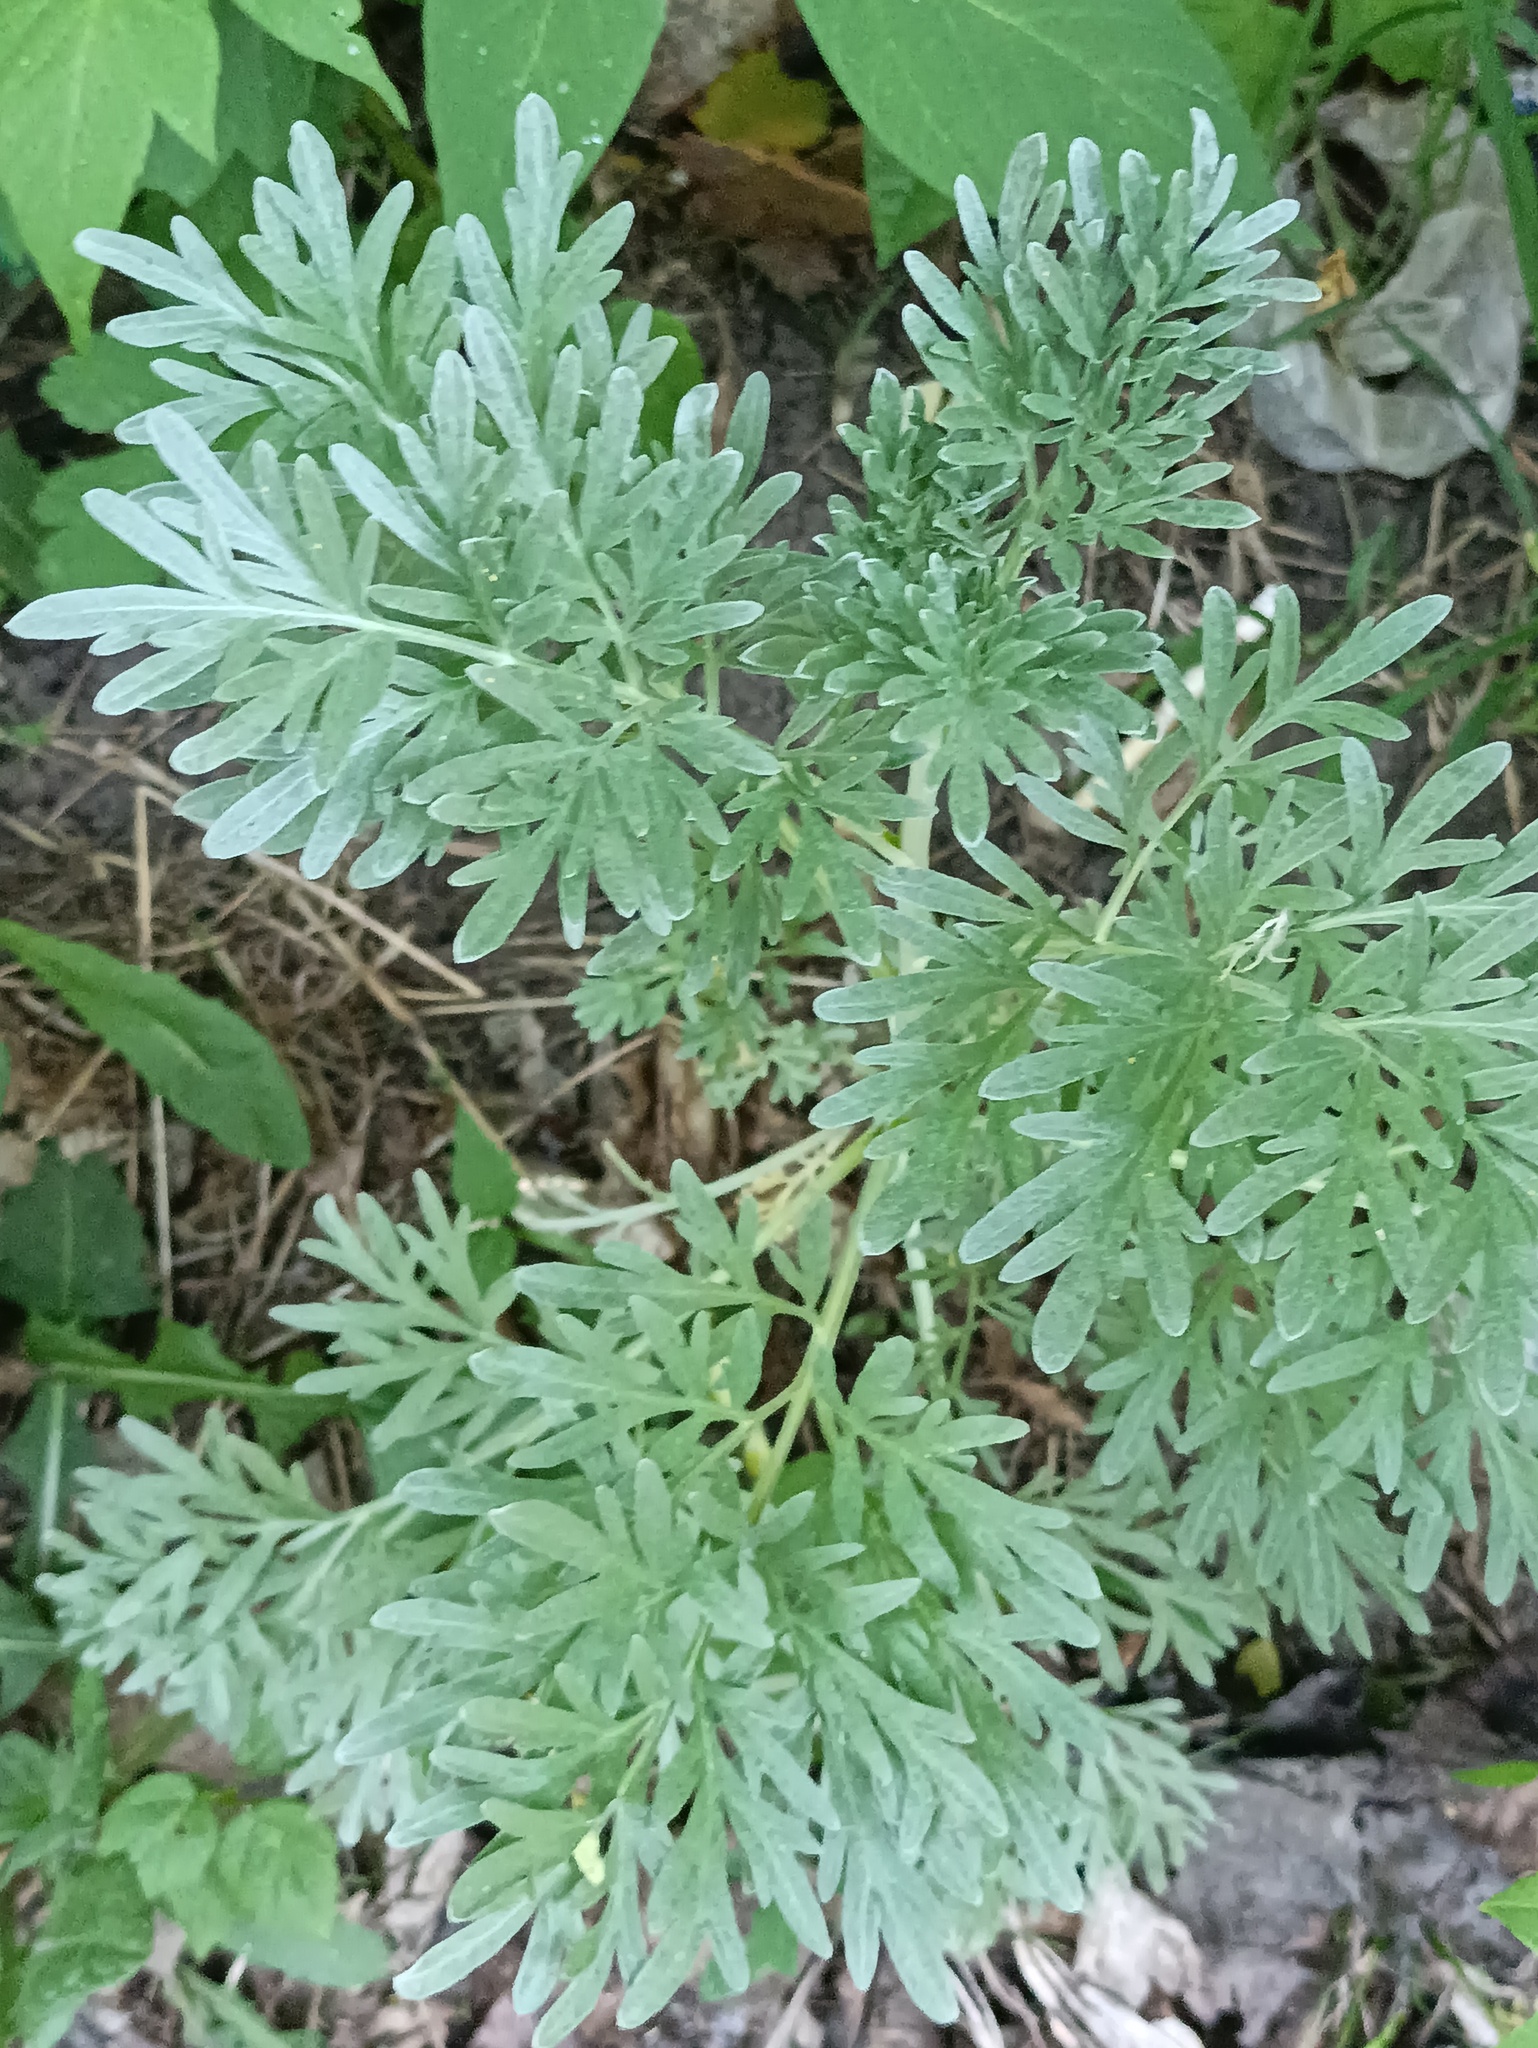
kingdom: Plantae
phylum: Tracheophyta
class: Magnoliopsida
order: Asterales
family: Asteraceae
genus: Artemisia
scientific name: Artemisia absinthium
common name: Wormwood
